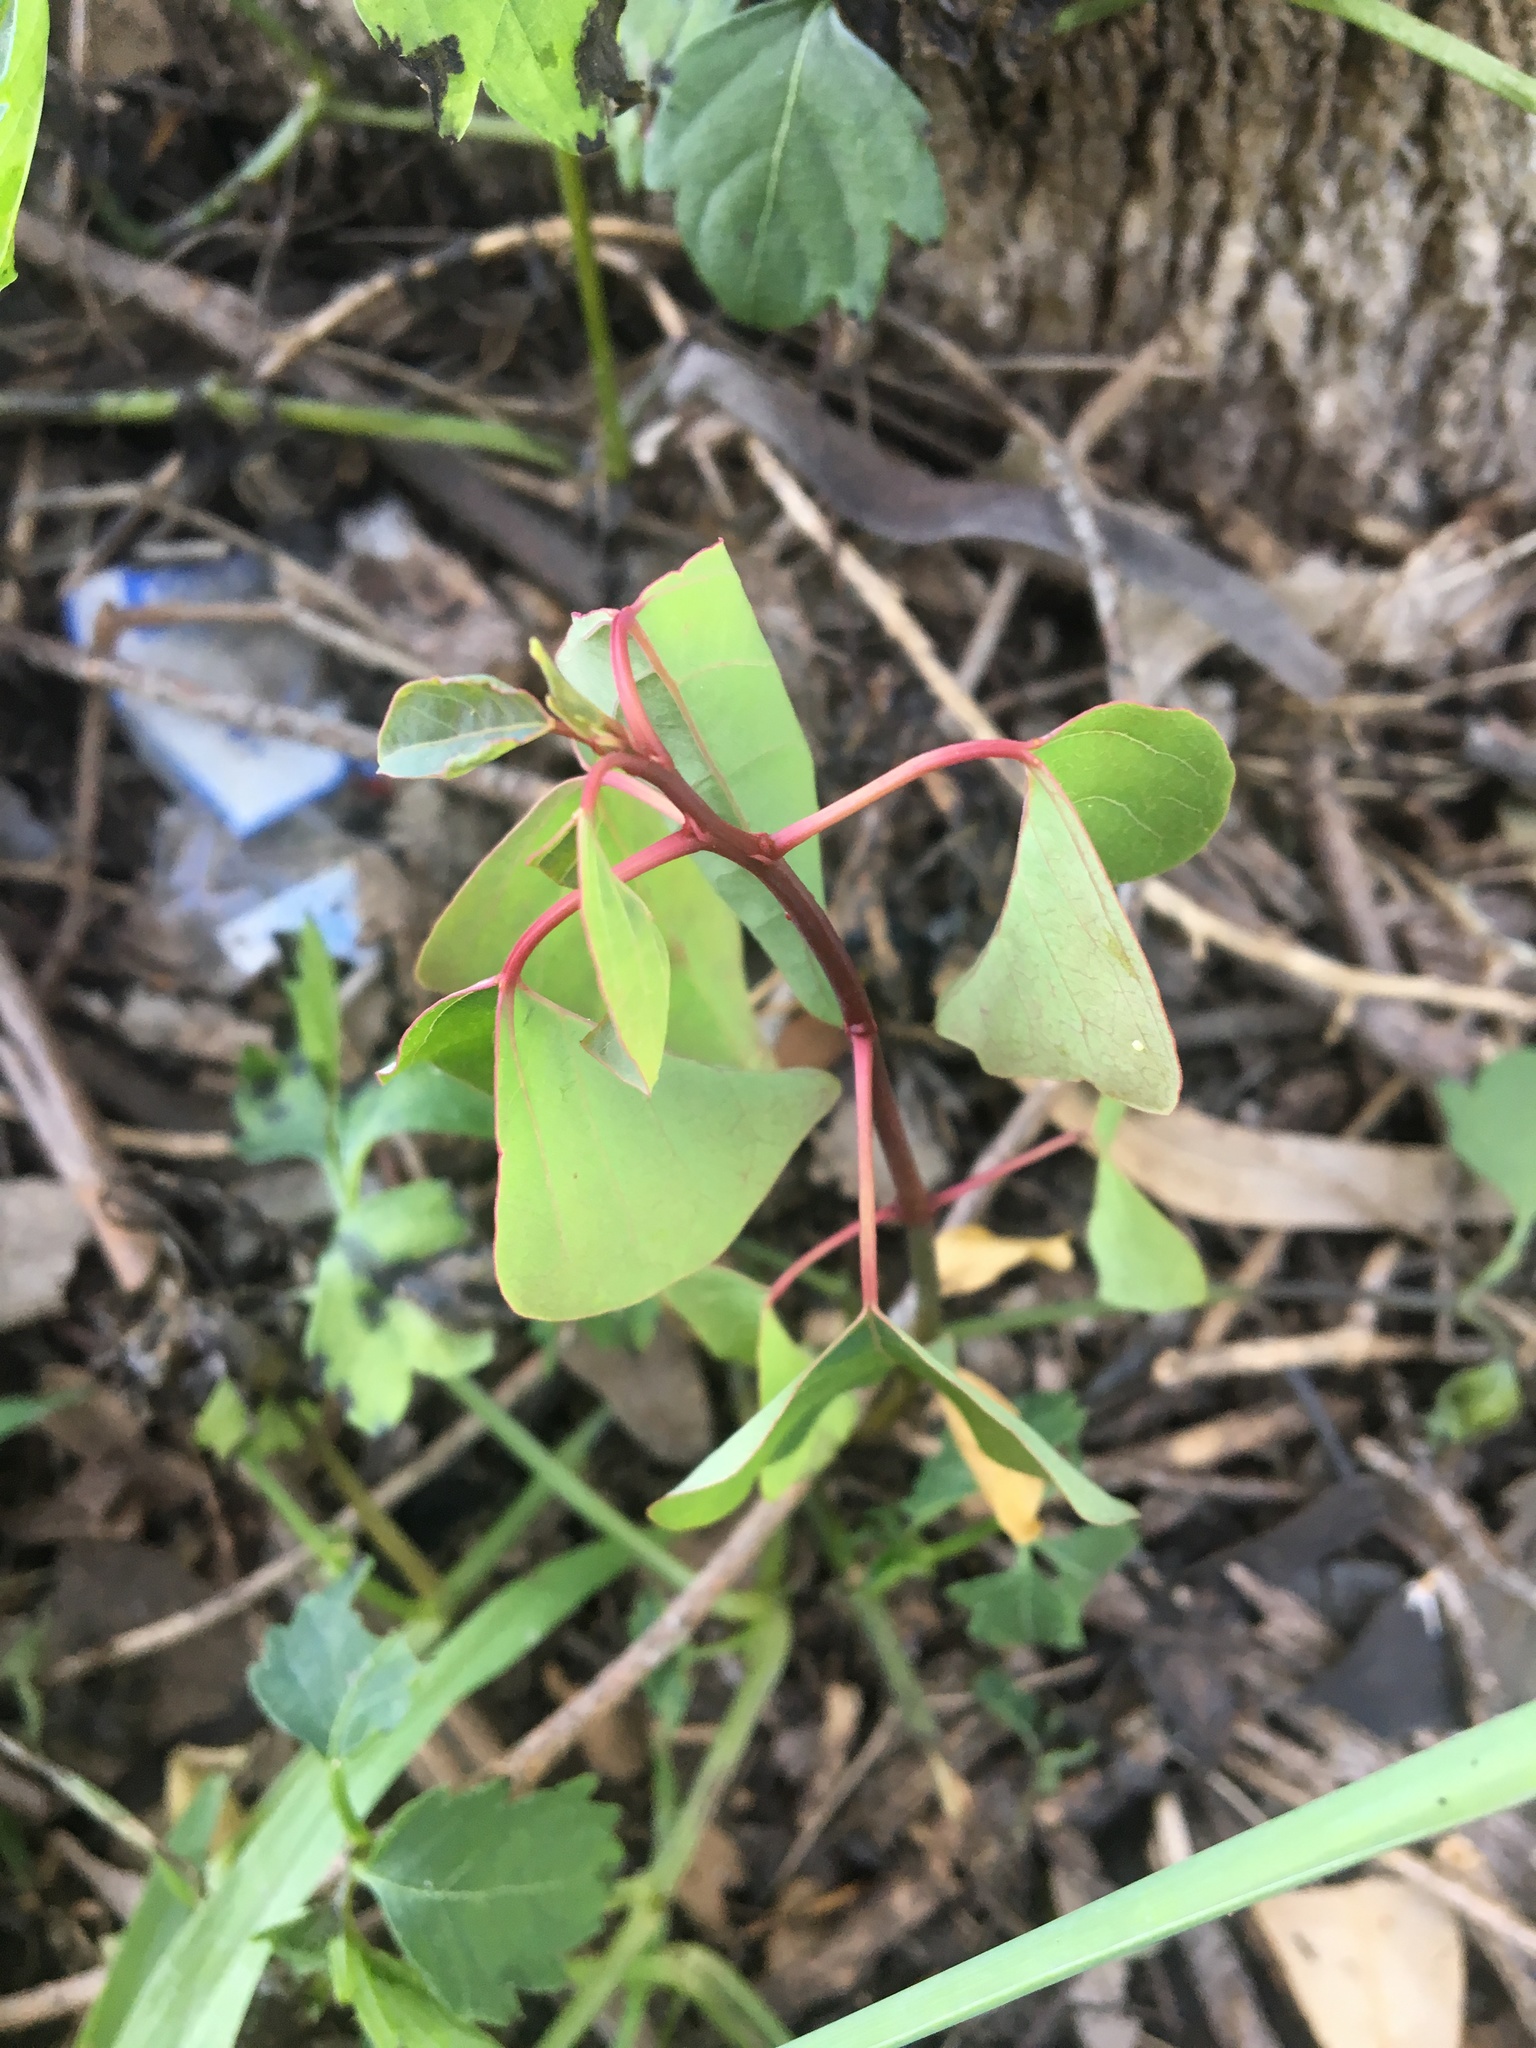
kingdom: Plantae
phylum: Tracheophyta
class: Magnoliopsida
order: Malpighiales
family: Euphorbiaceae
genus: Homalanthus
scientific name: Homalanthus populifolius
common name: Queensland poplar
